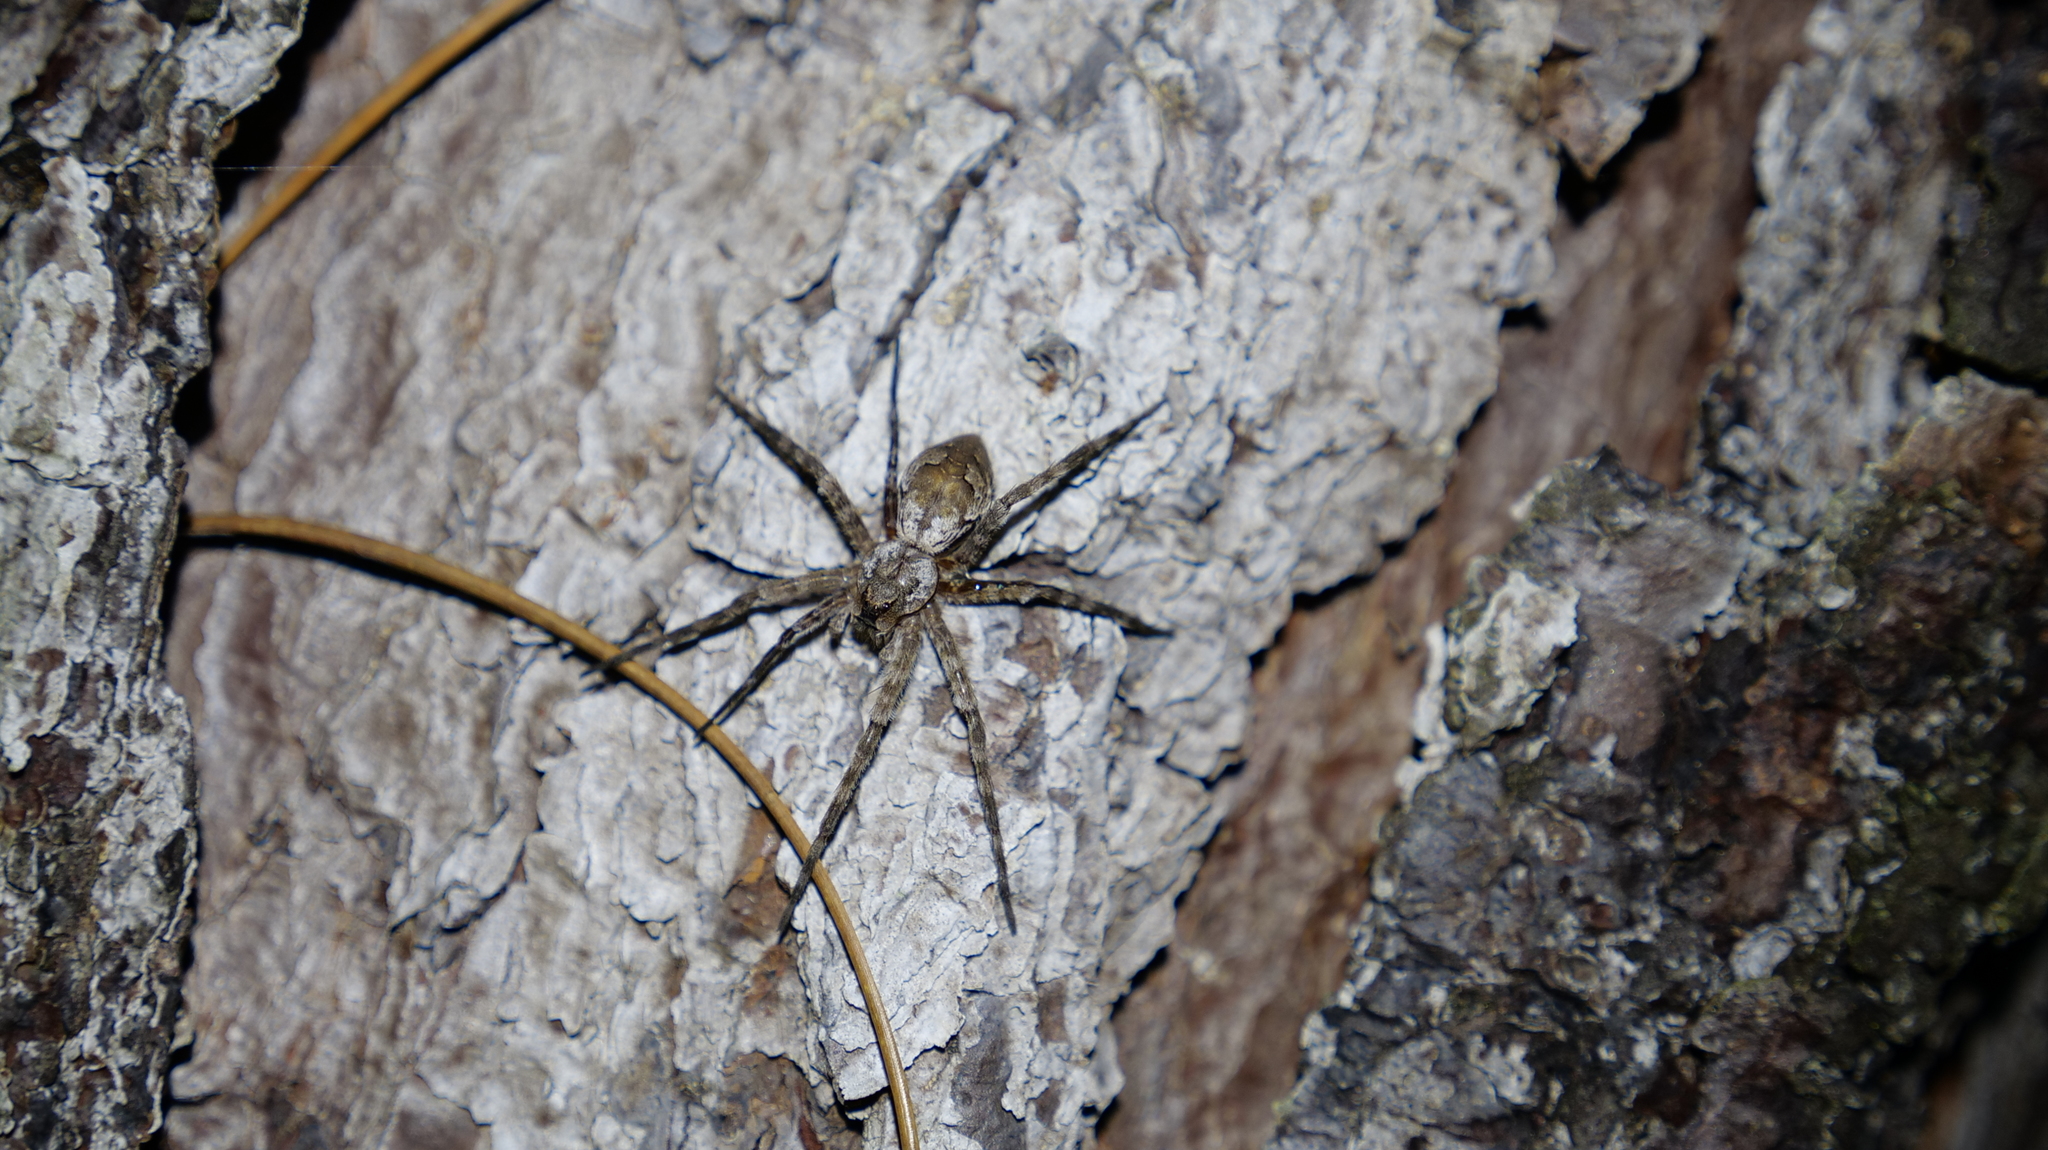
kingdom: Animalia
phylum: Arthropoda
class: Arachnida
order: Araneae
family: Pisauridae
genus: Dolomedes
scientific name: Dolomedes albineus
